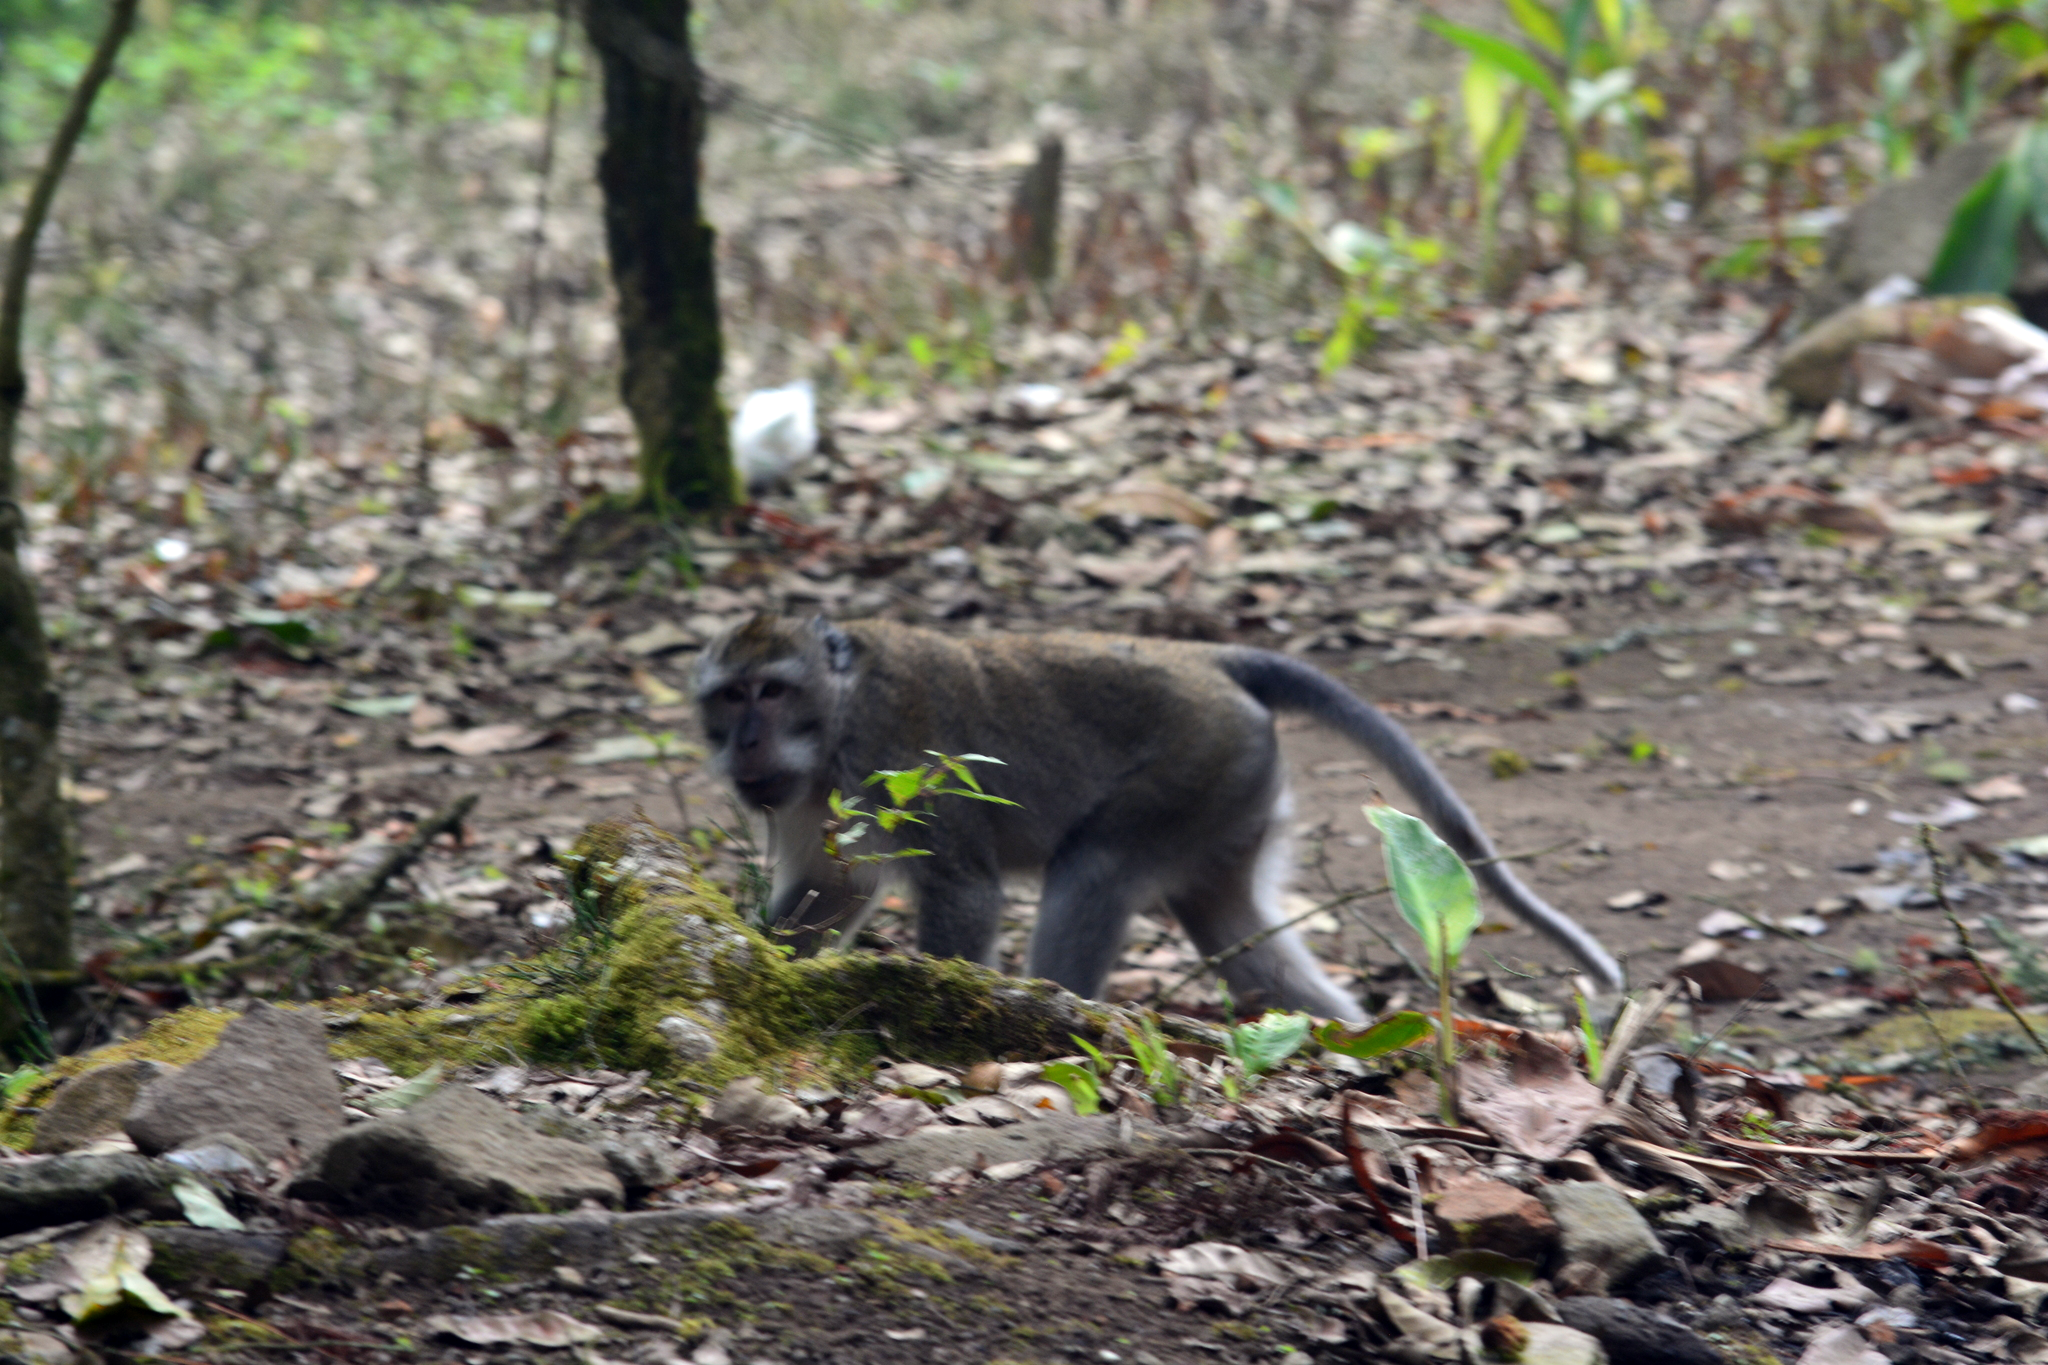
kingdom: Animalia
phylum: Chordata
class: Mammalia
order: Primates
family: Cercopithecidae
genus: Macaca
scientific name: Macaca fascicularis
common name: Crab-eating macaque
